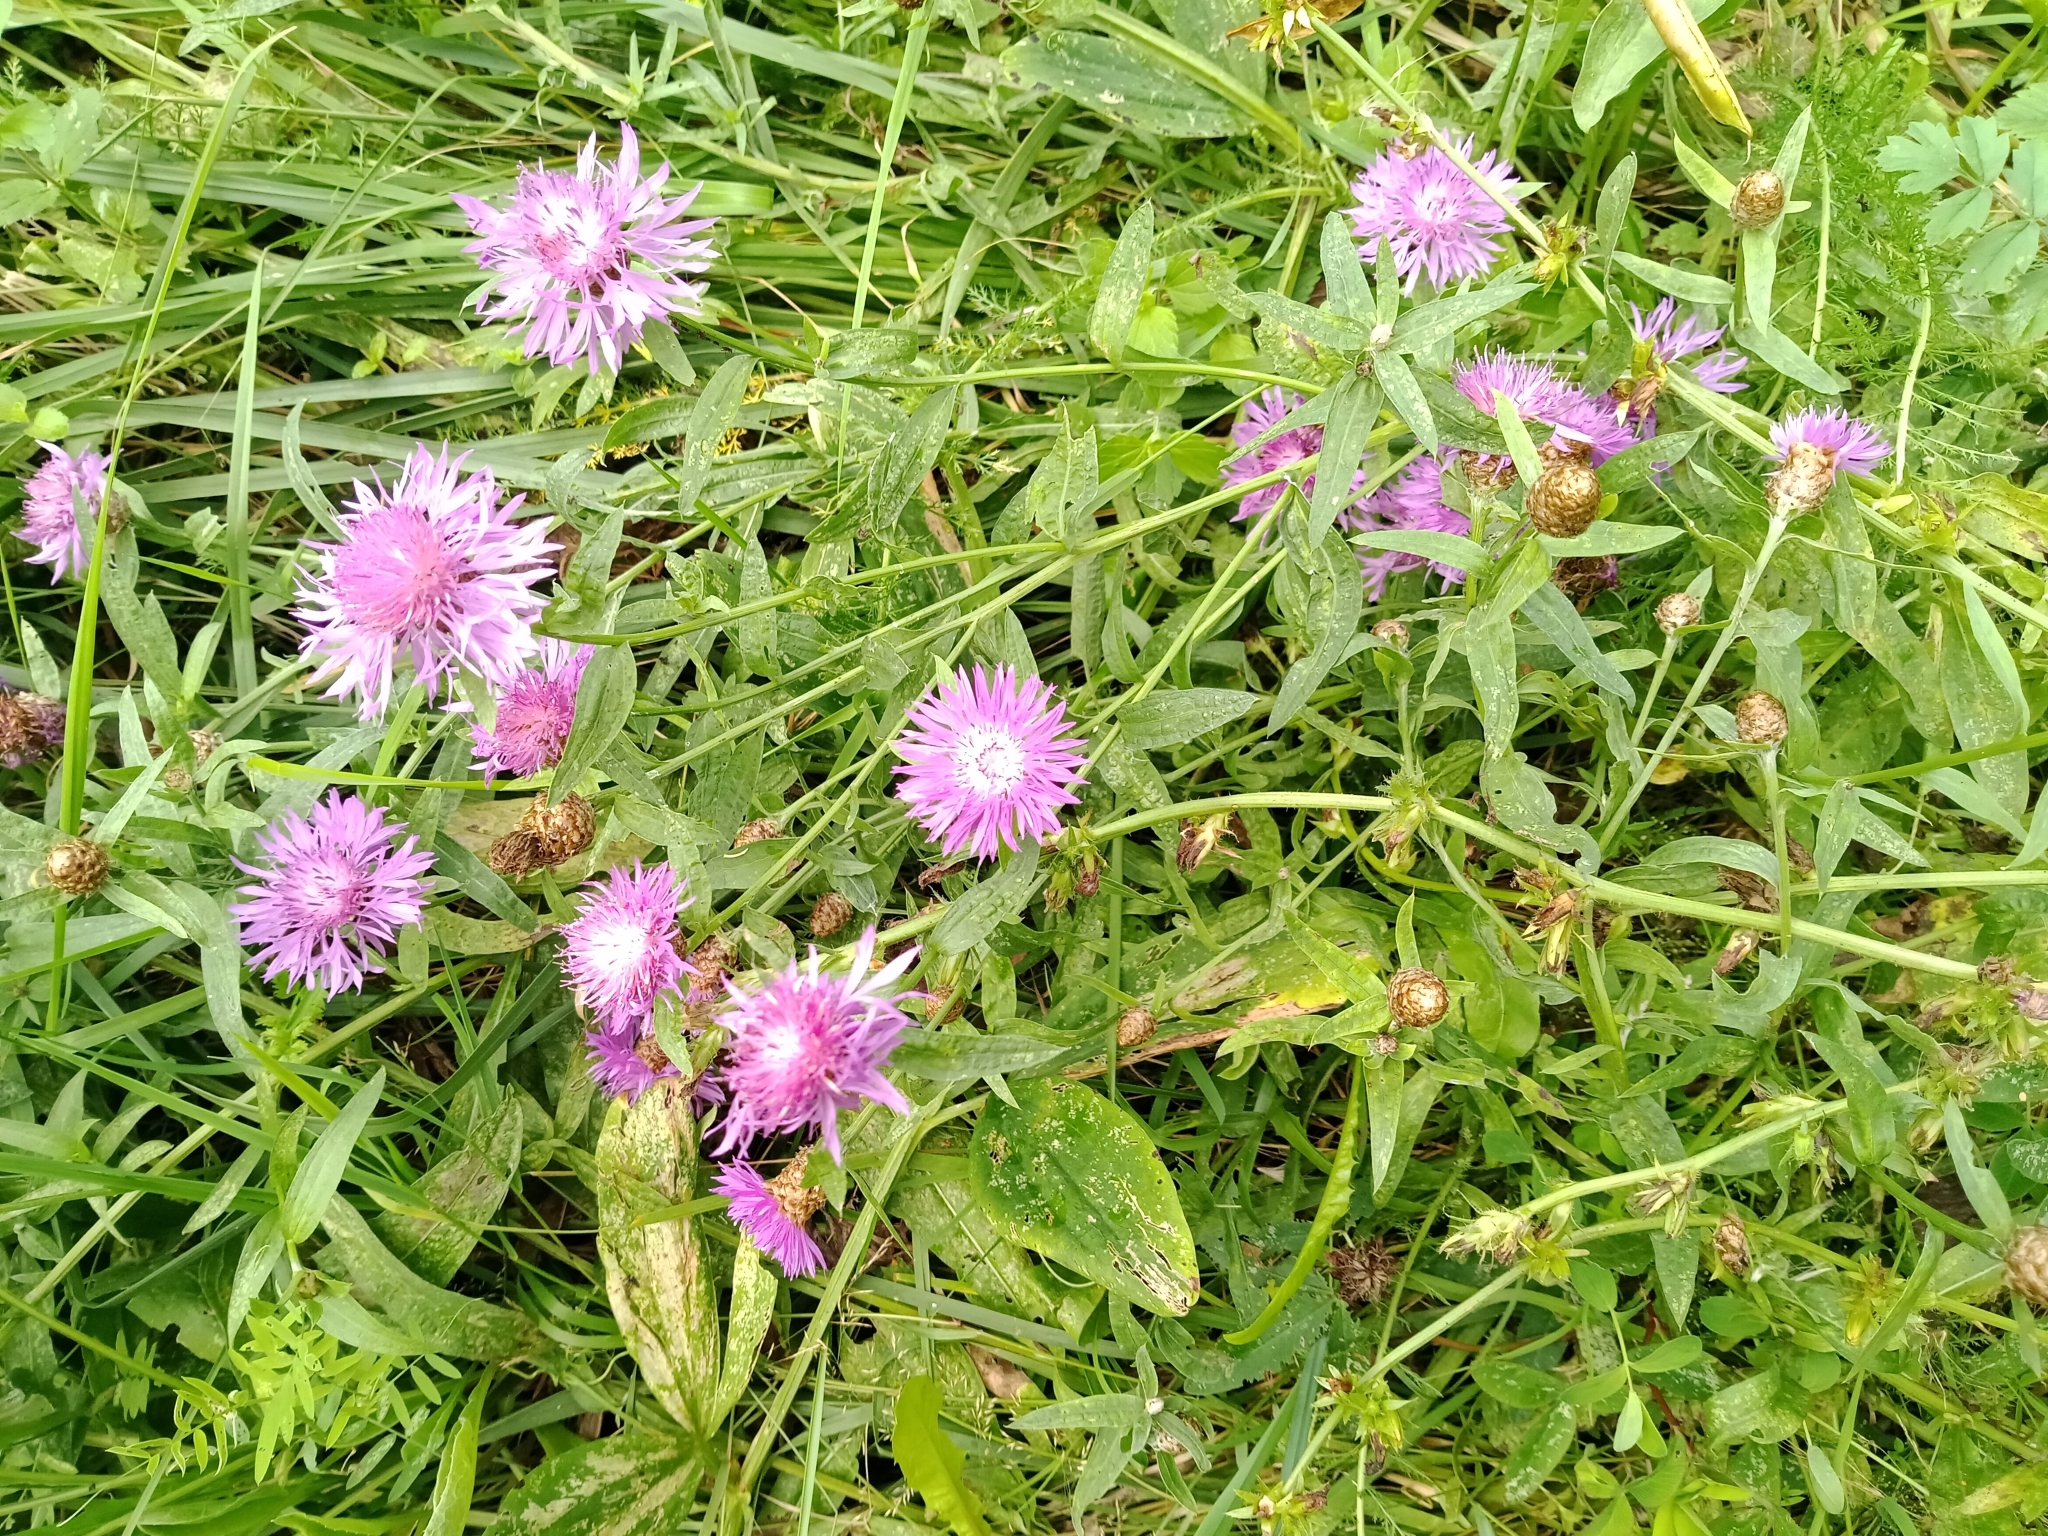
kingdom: Plantae
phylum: Tracheophyta
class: Magnoliopsida
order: Asterales
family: Asteraceae
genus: Centaurea
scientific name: Centaurea jacea
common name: Brown knapweed
